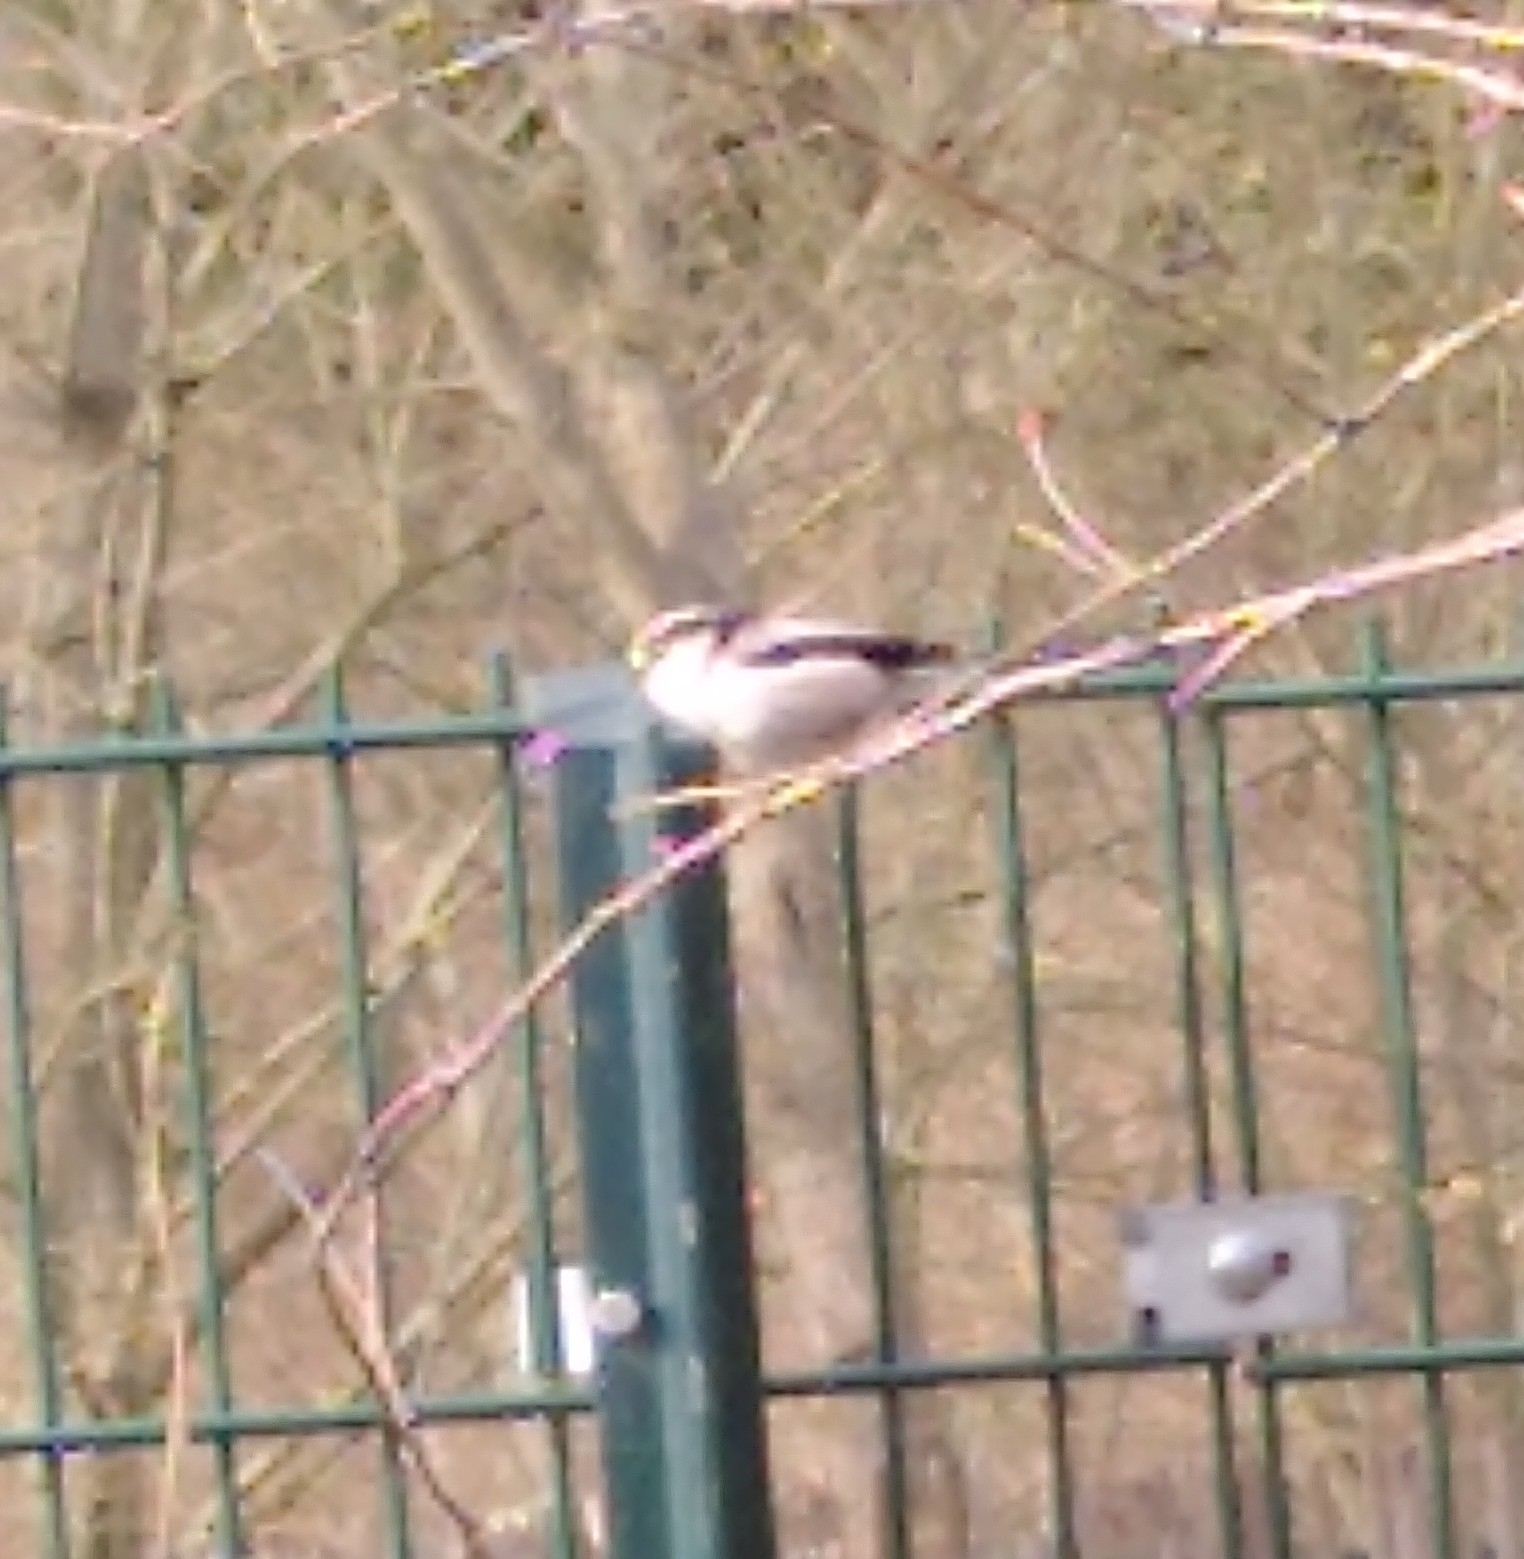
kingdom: Animalia
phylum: Chordata
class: Aves
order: Passeriformes
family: Aegithalidae
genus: Aegithalos
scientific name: Aegithalos caudatus
